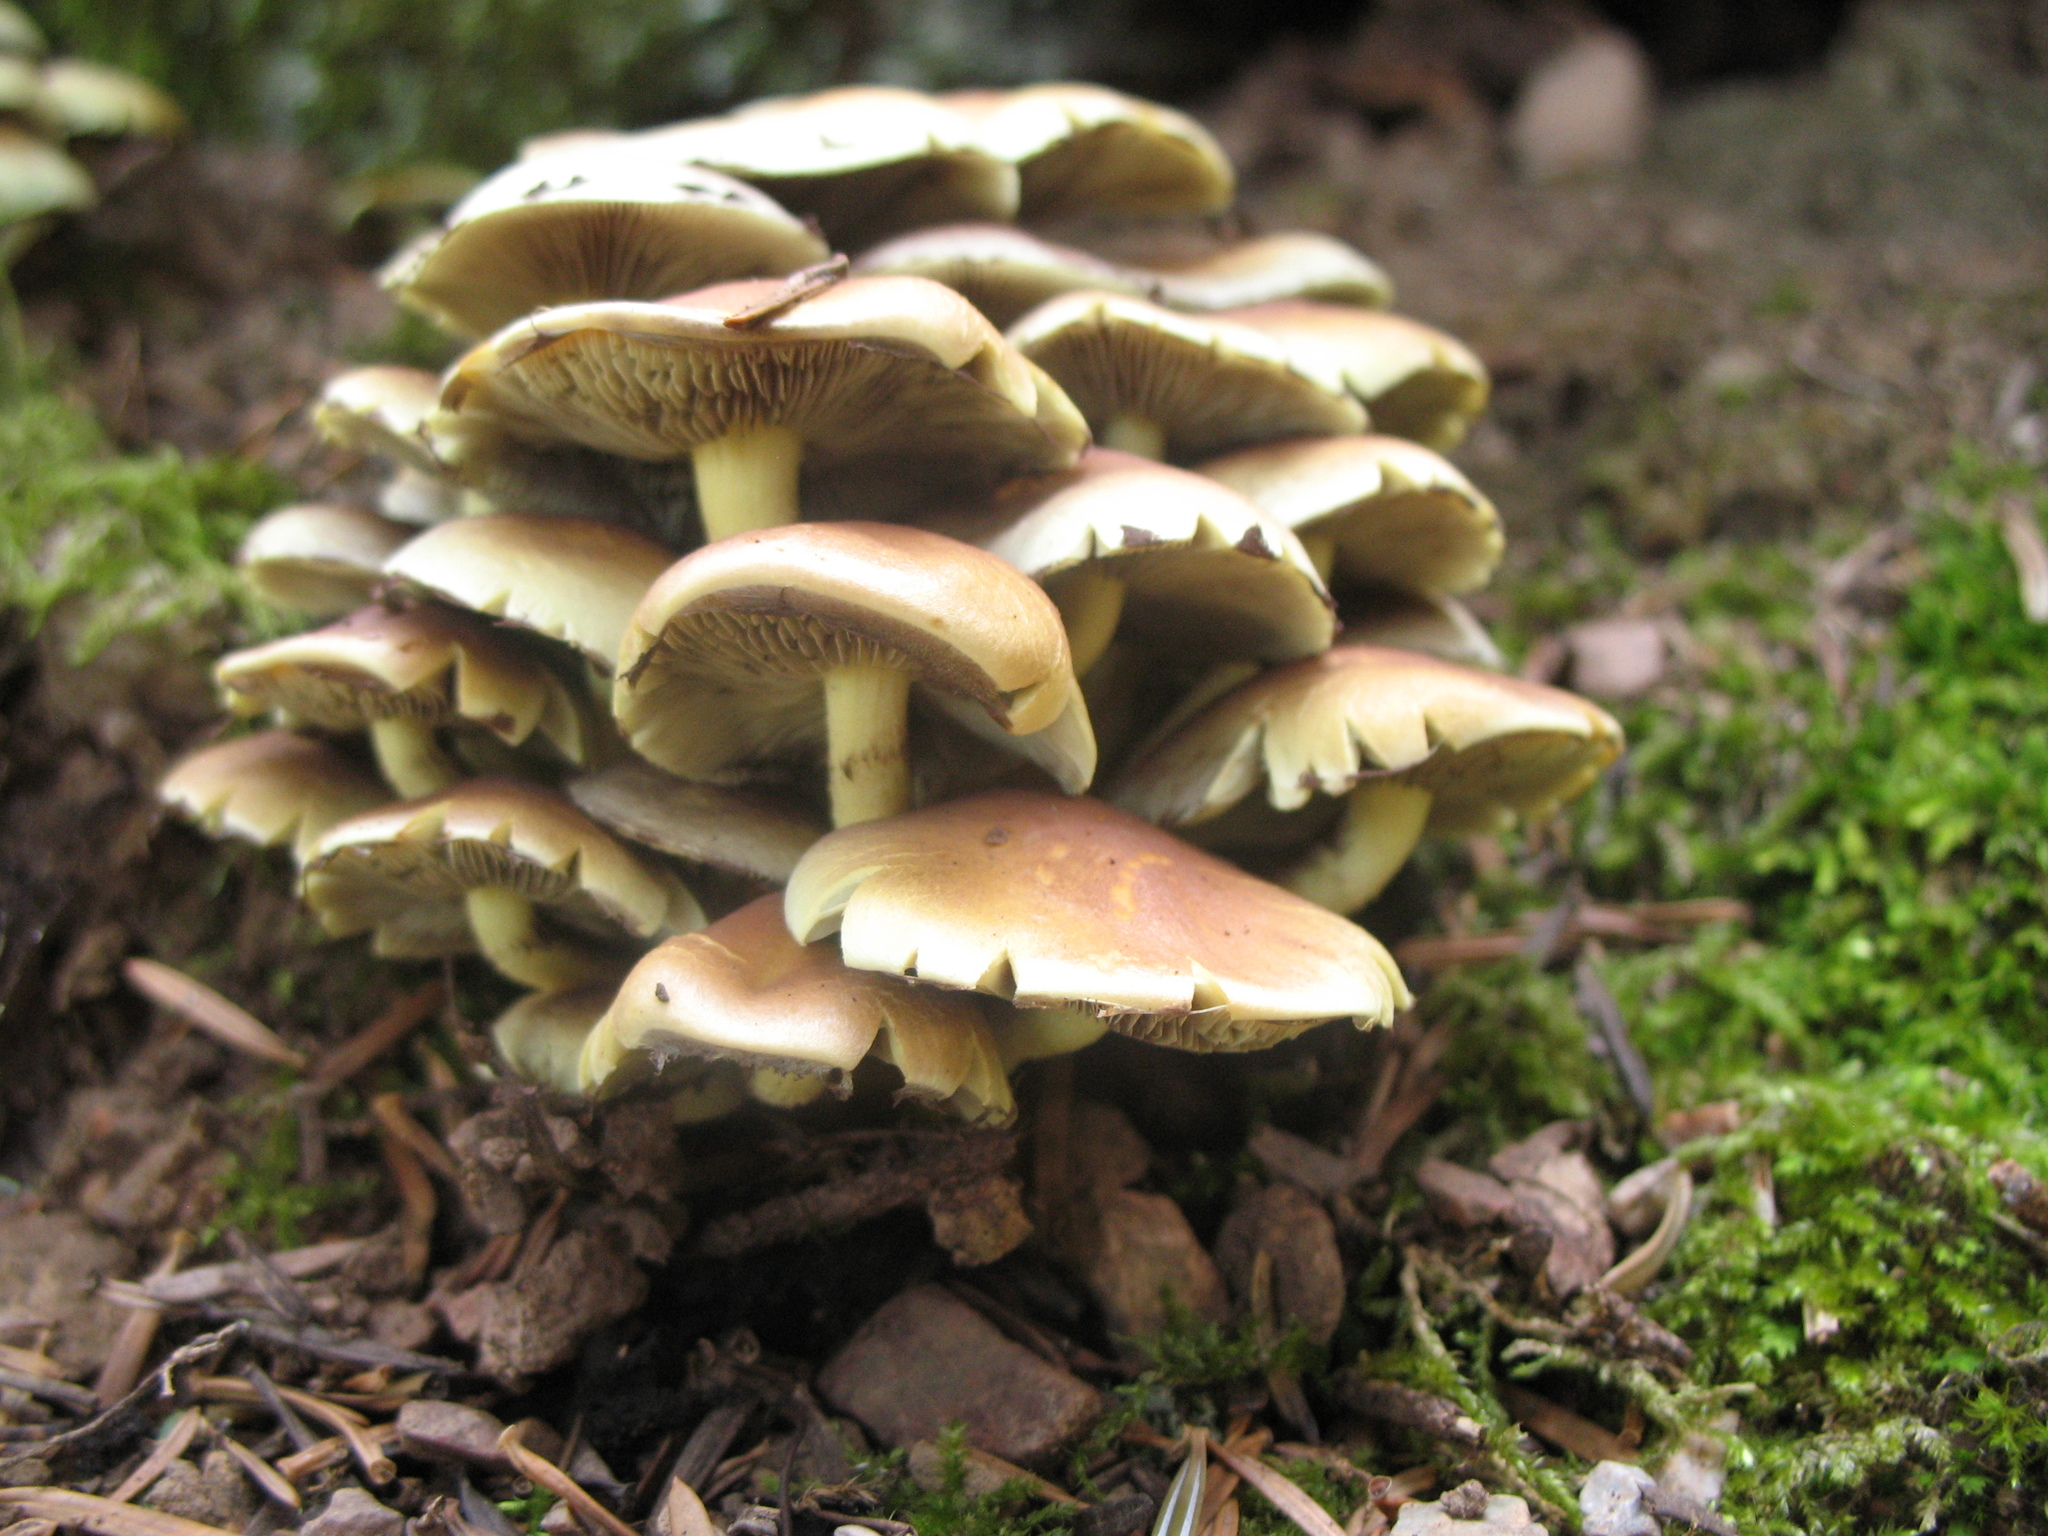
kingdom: Fungi
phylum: Basidiomycota
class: Agaricomycetes
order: Agaricales
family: Strophariaceae
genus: Hypholoma
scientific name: Hypholoma fasciculare
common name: Sulphur tuft
